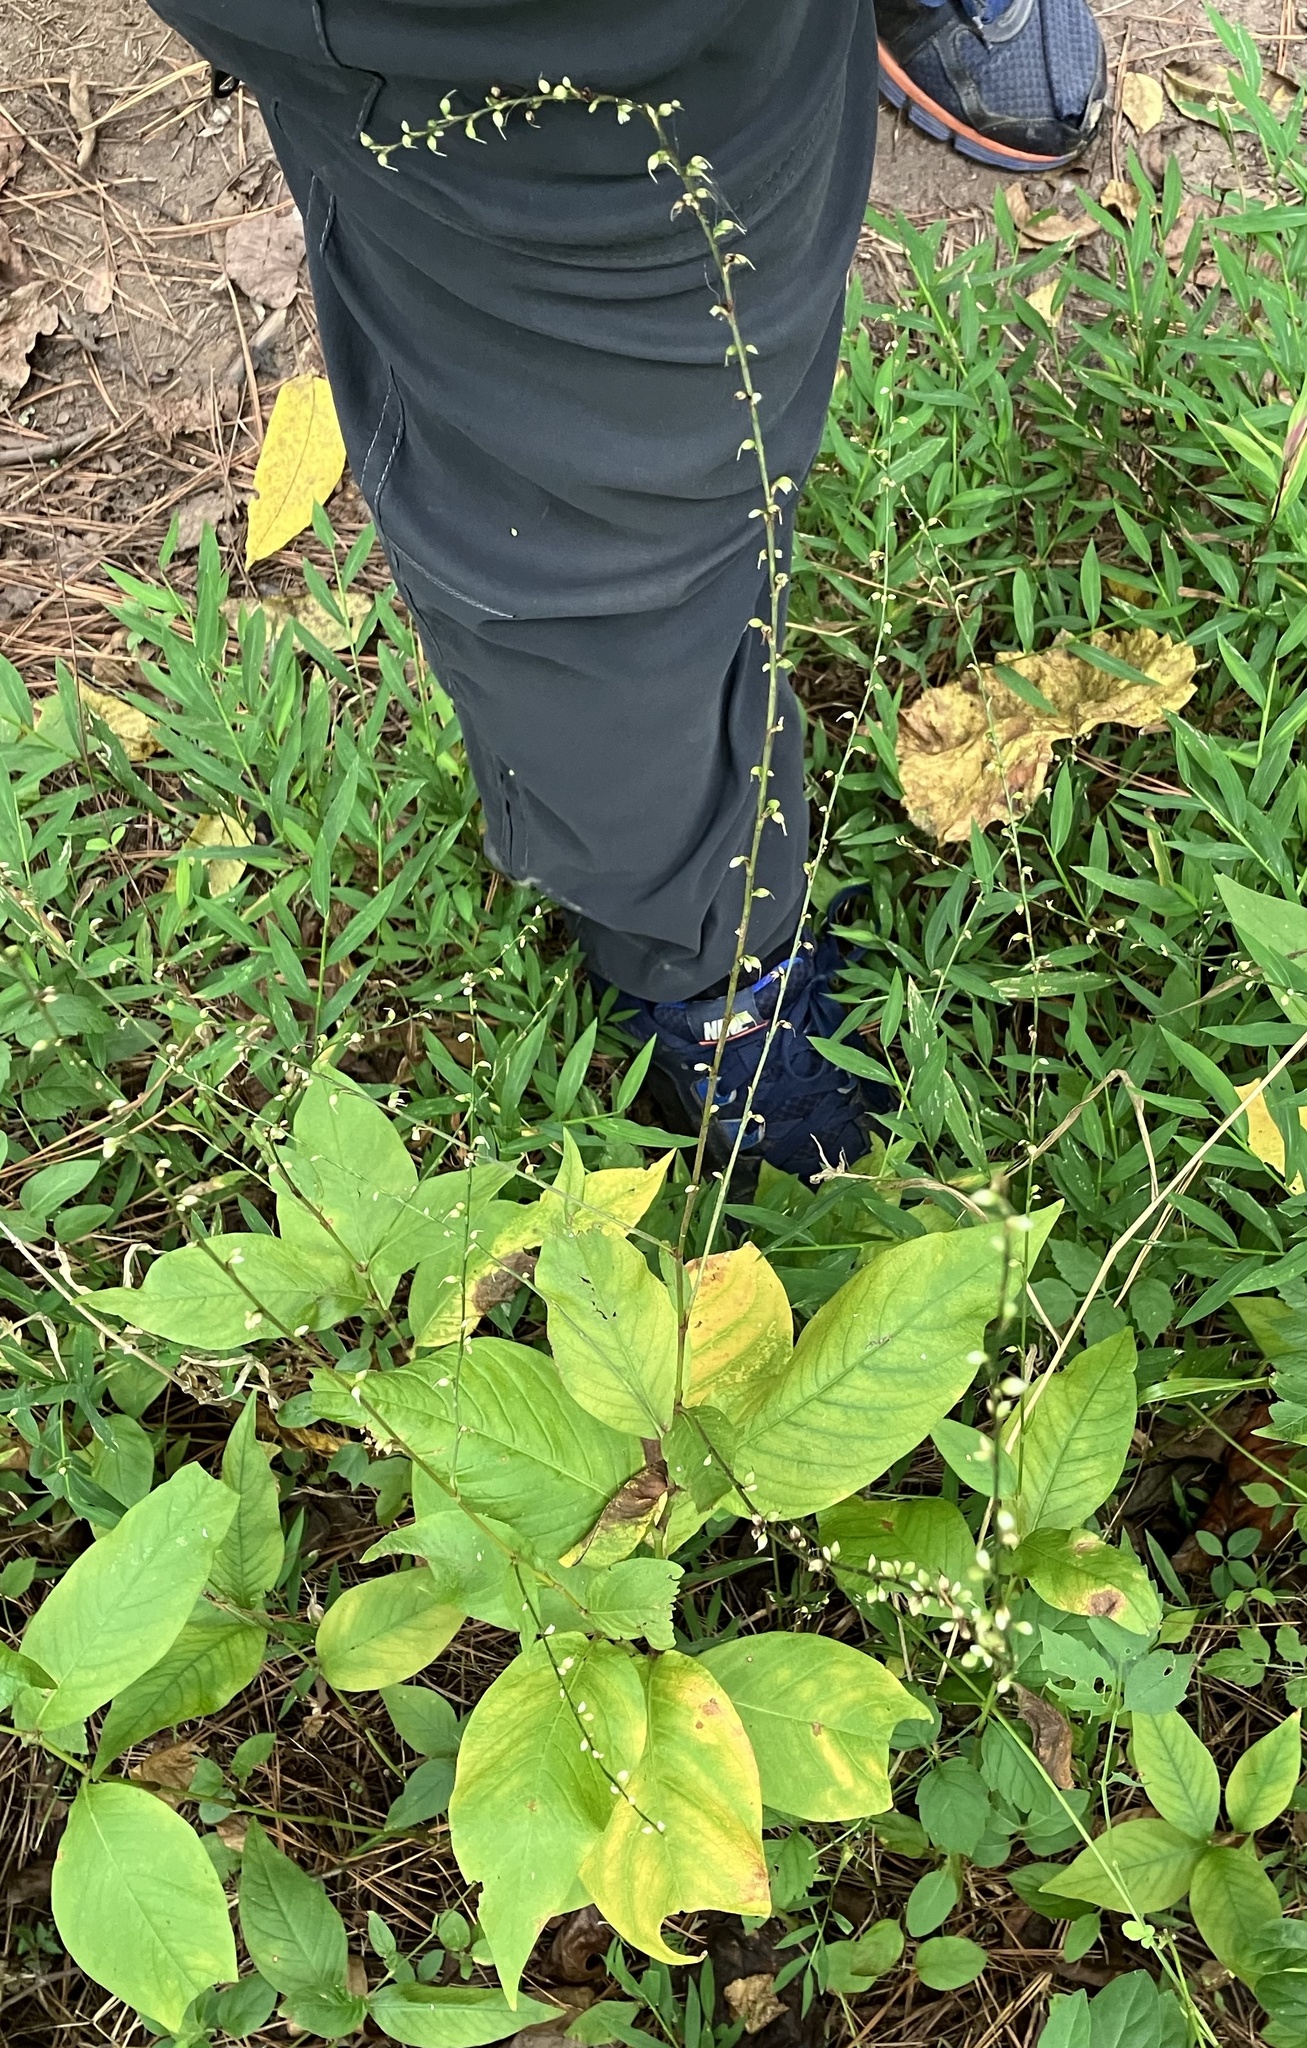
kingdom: Plantae
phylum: Tracheophyta
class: Magnoliopsida
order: Caryophyllales
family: Polygonaceae
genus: Persicaria
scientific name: Persicaria virginiana
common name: Jumpseed
